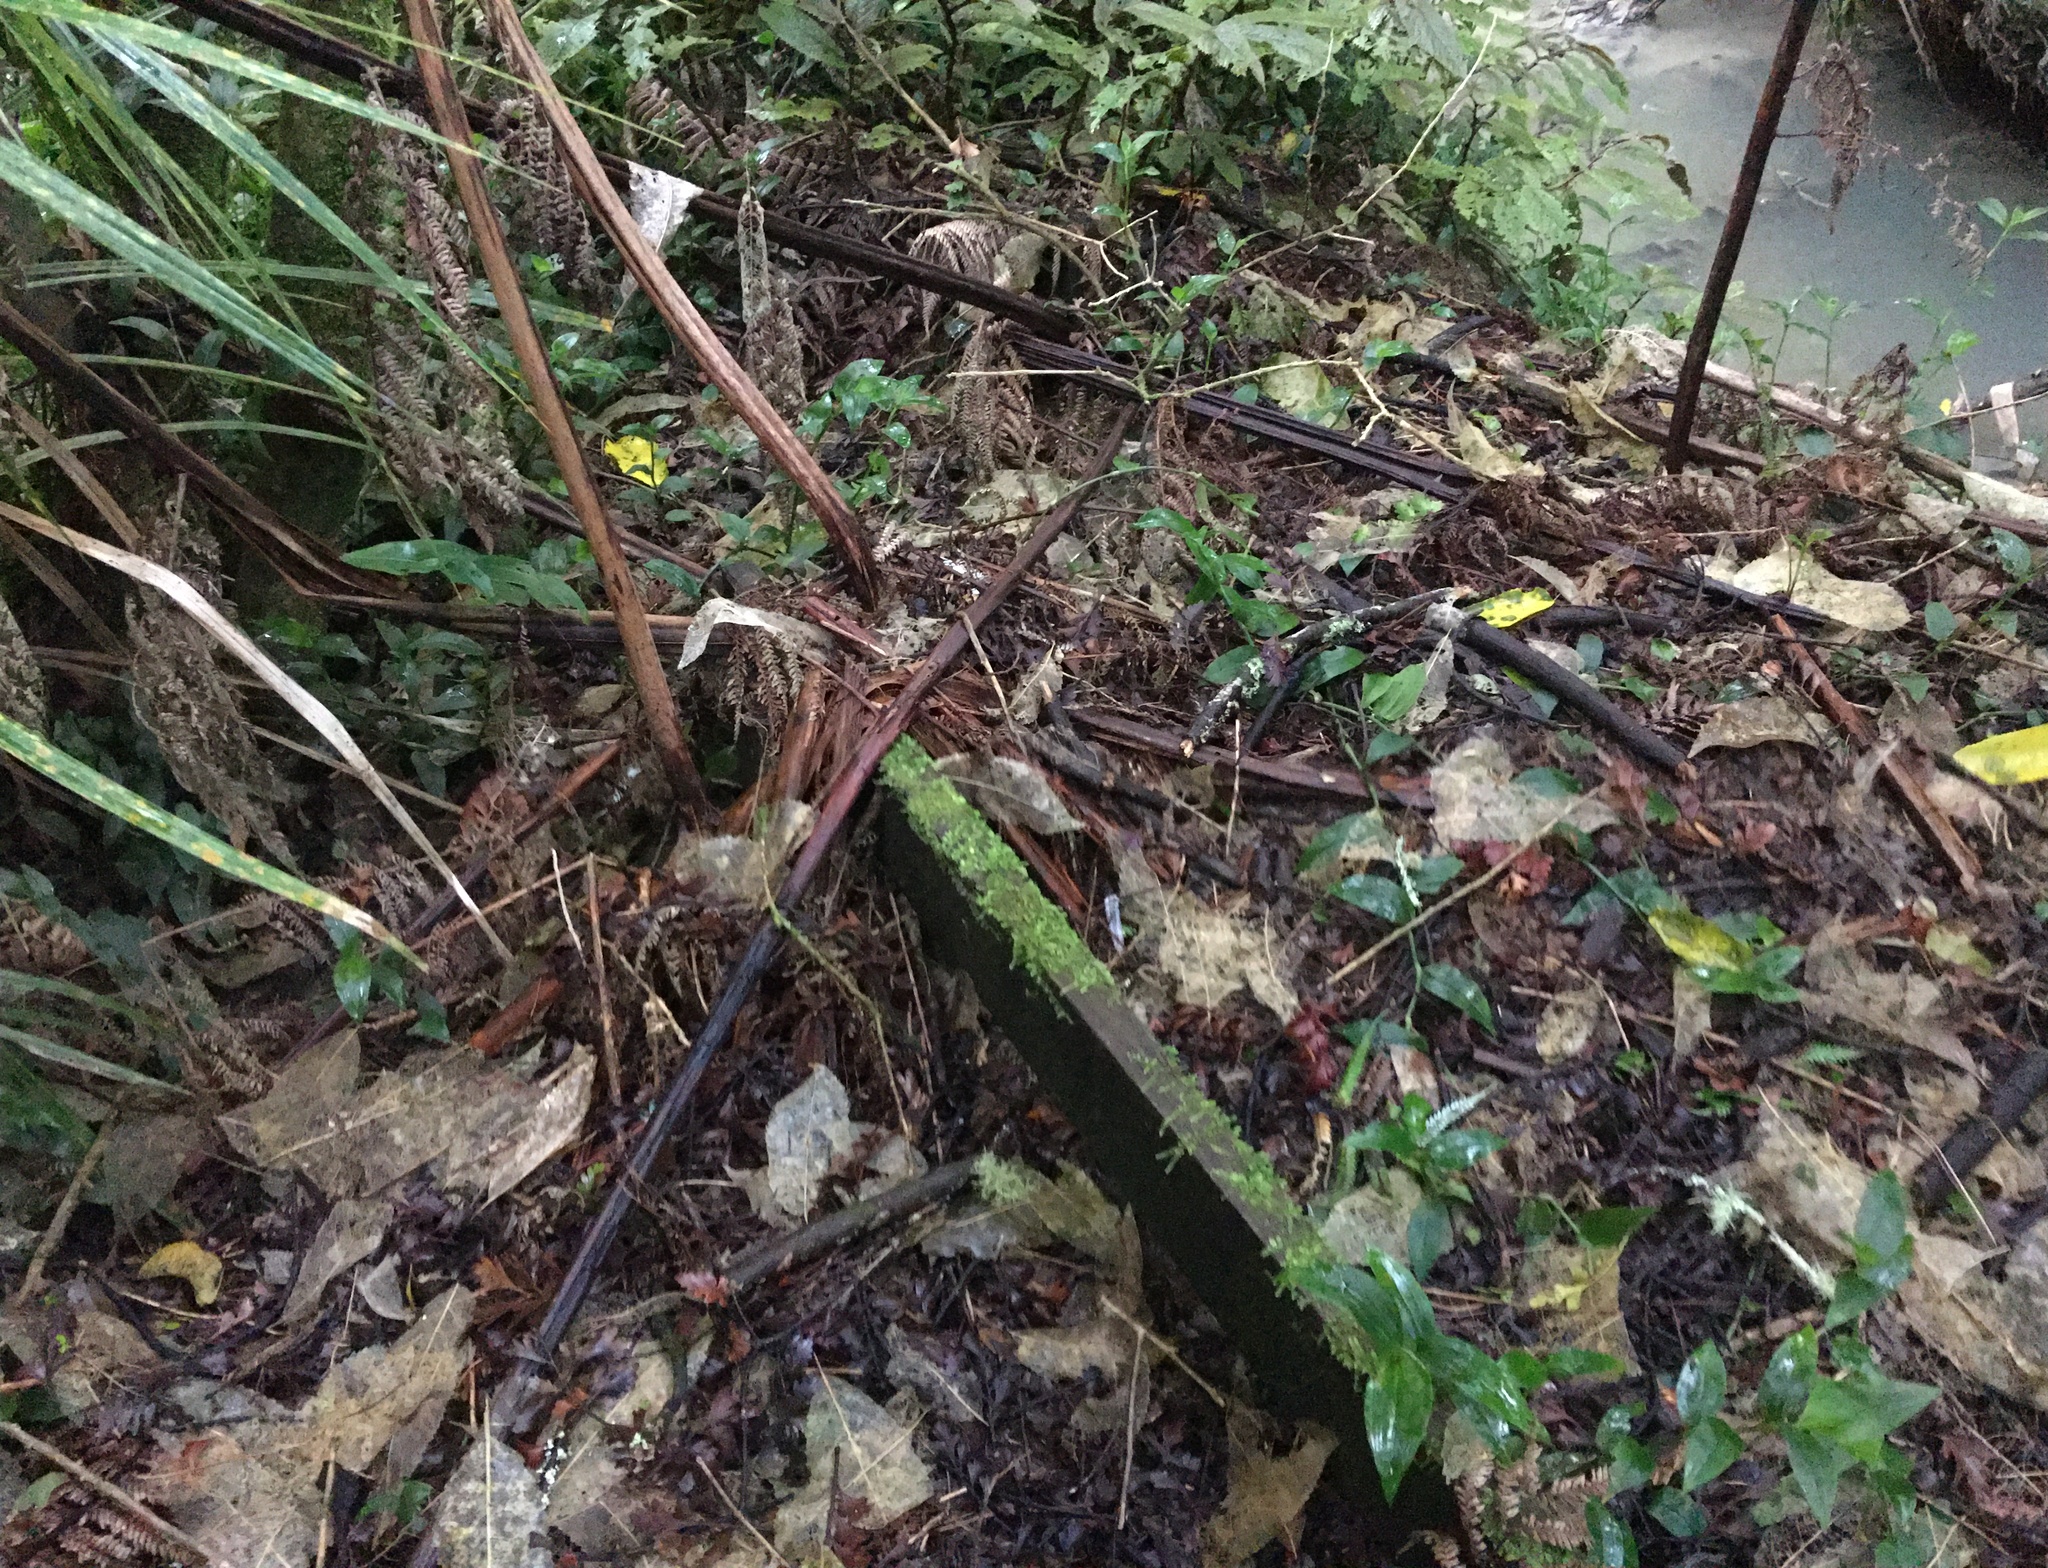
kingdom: Plantae
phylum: Tracheophyta
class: Liliopsida
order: Commelinales
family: Commelinaceae
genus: Tradescantia
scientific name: Tradescantia fluminensis
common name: Wandering-jew
